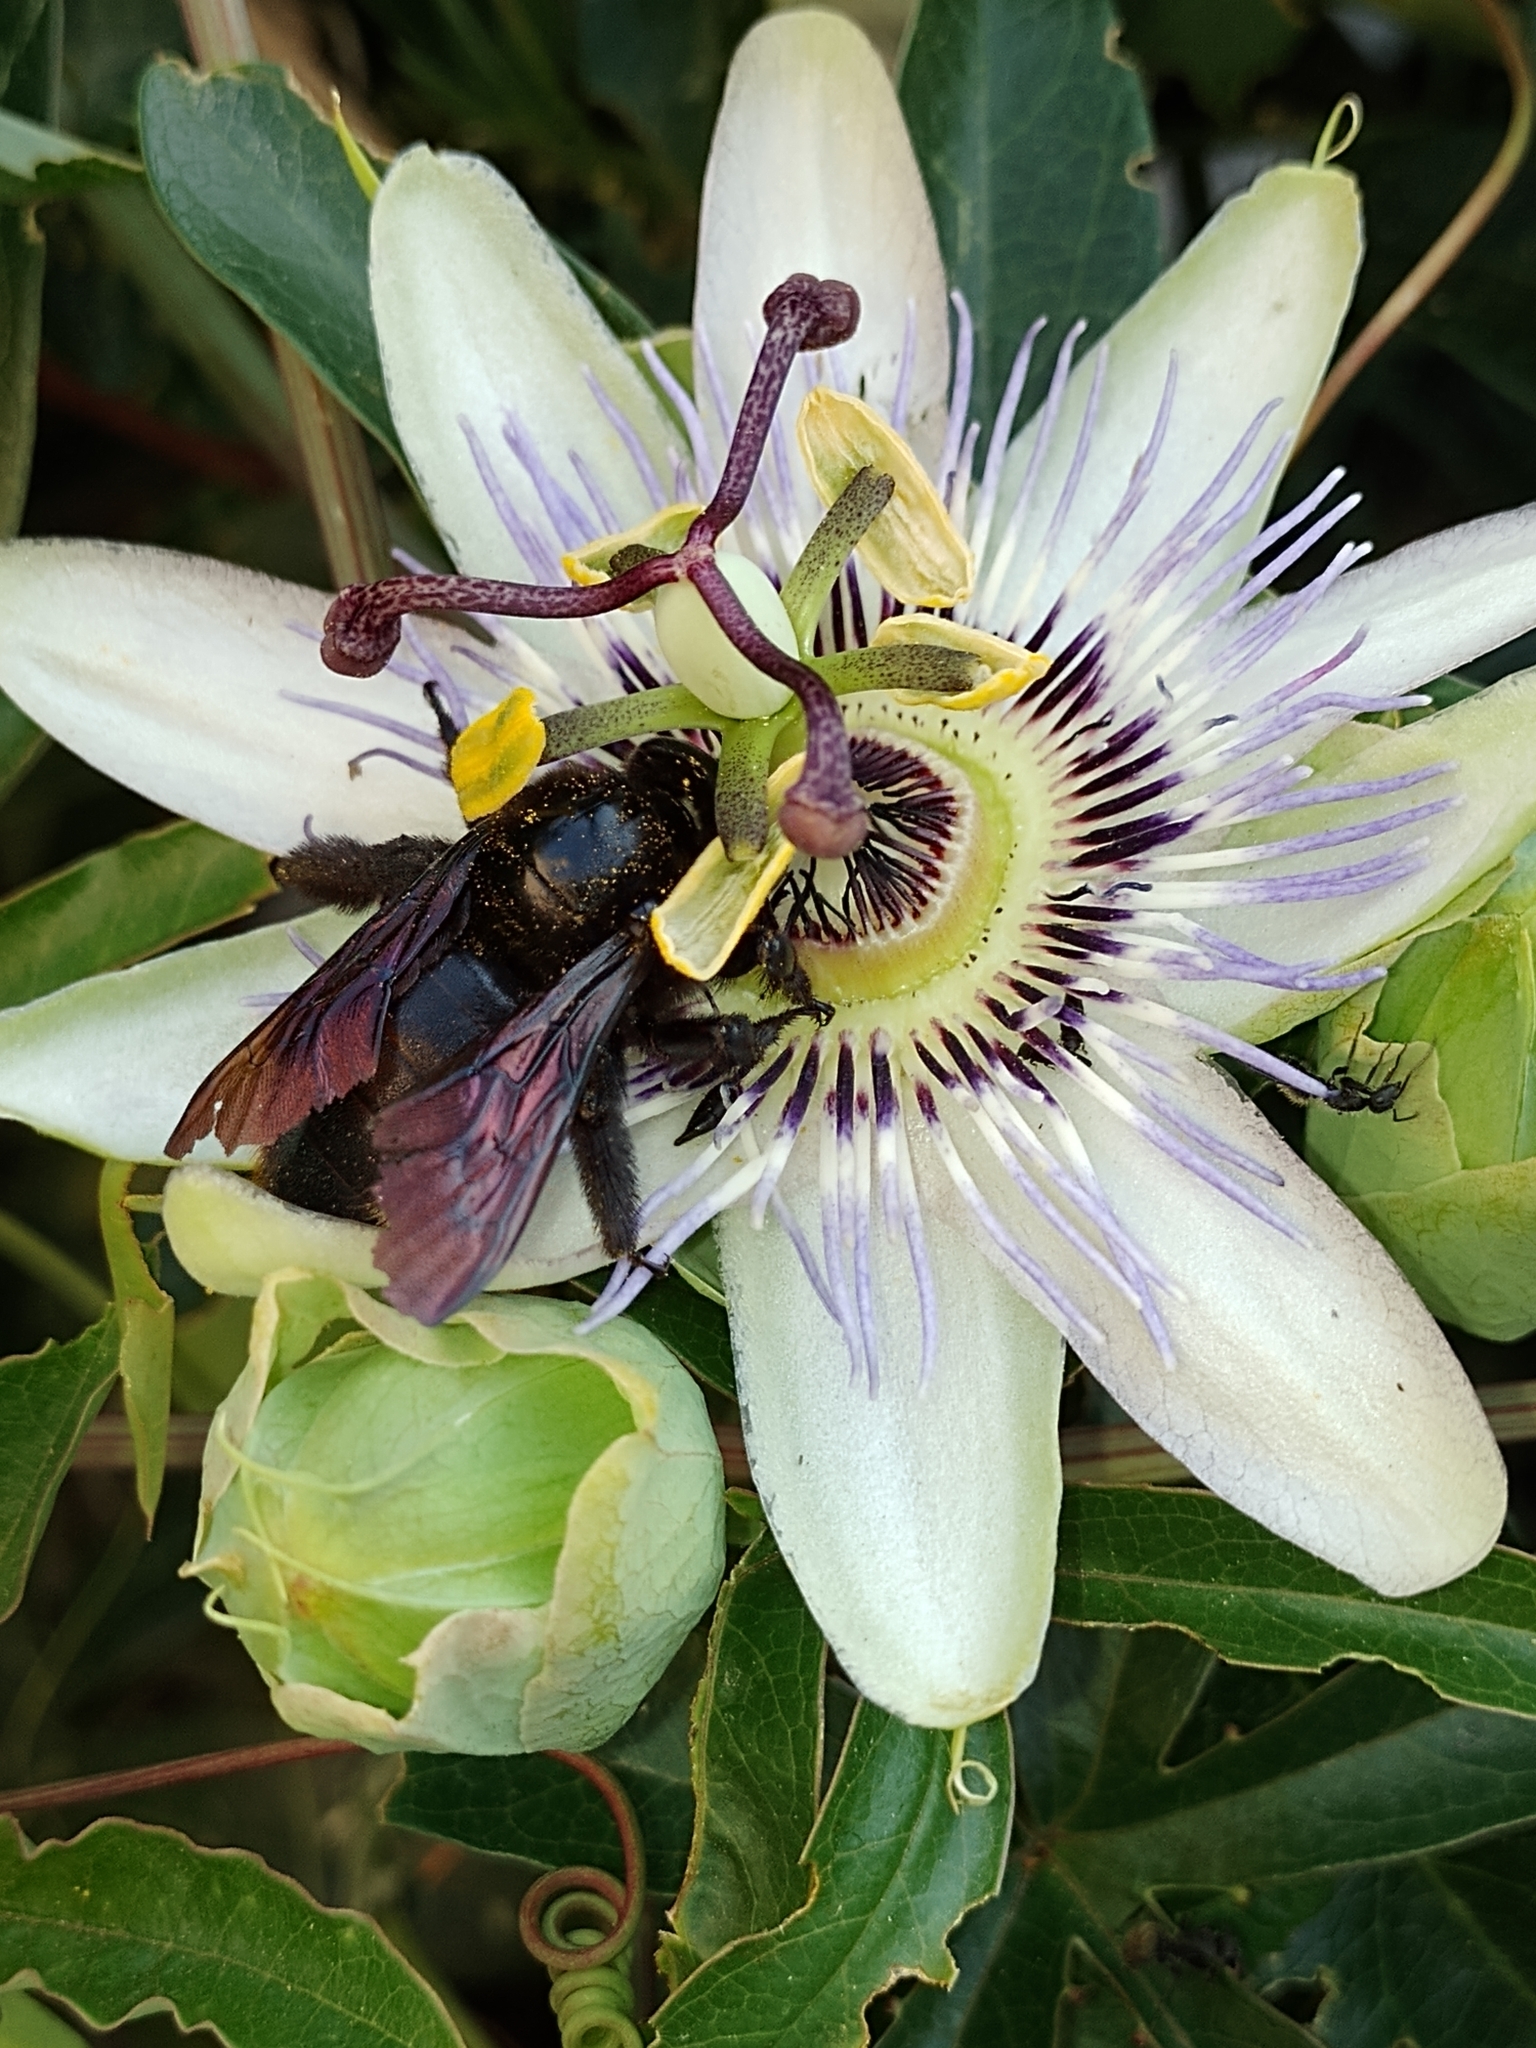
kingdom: Plantae
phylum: Tracheophyta
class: Magnoliopsida
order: Malpighiales
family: Passifloraceae
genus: Passiflora
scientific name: Passiflora caerulea
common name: Blue passionflower
